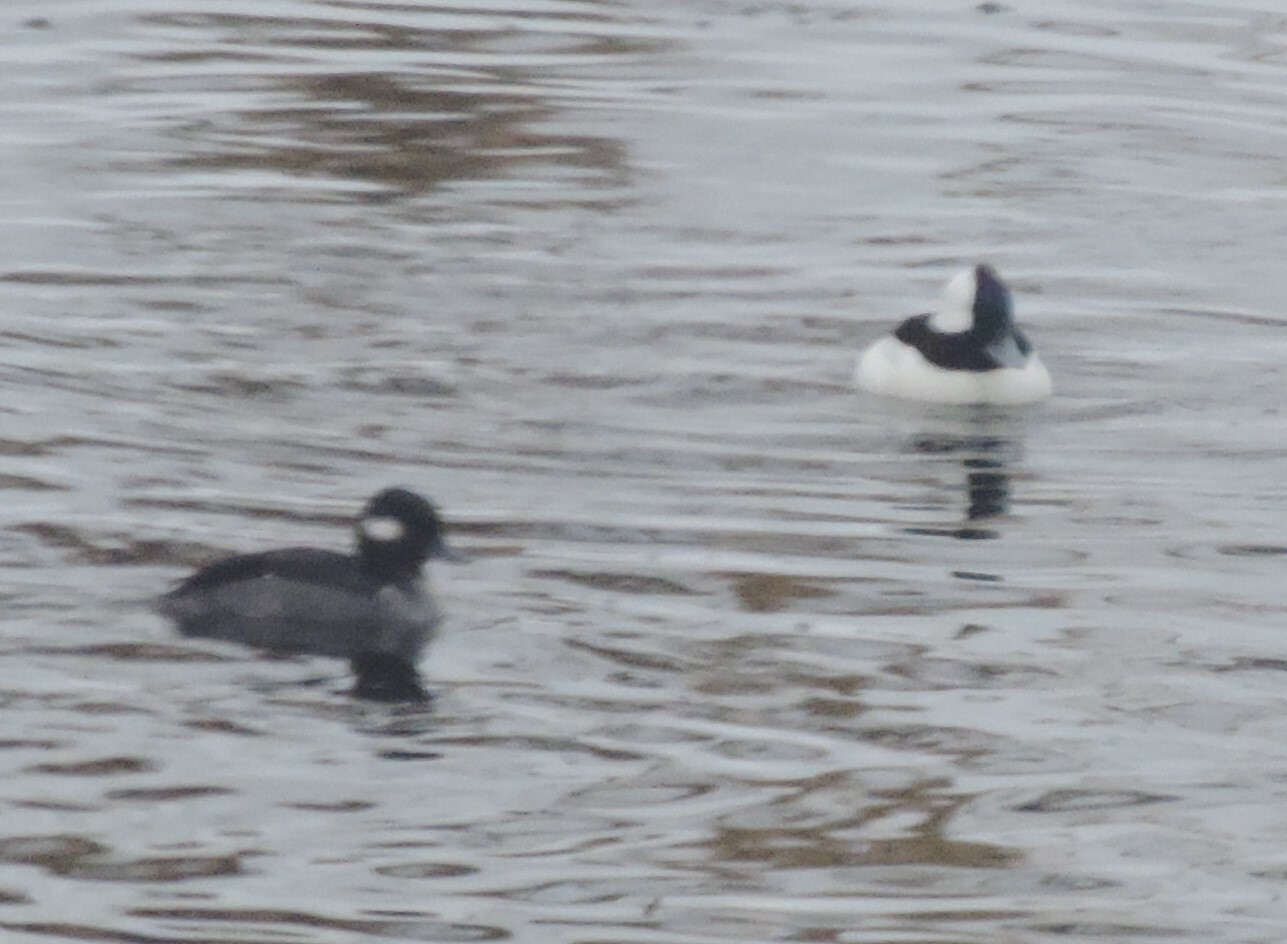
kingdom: Animalia
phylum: Chordata
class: Aves
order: Anseriformes
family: Anatidae
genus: Bucephala
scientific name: Bucephala albeola
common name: Bufflehead
